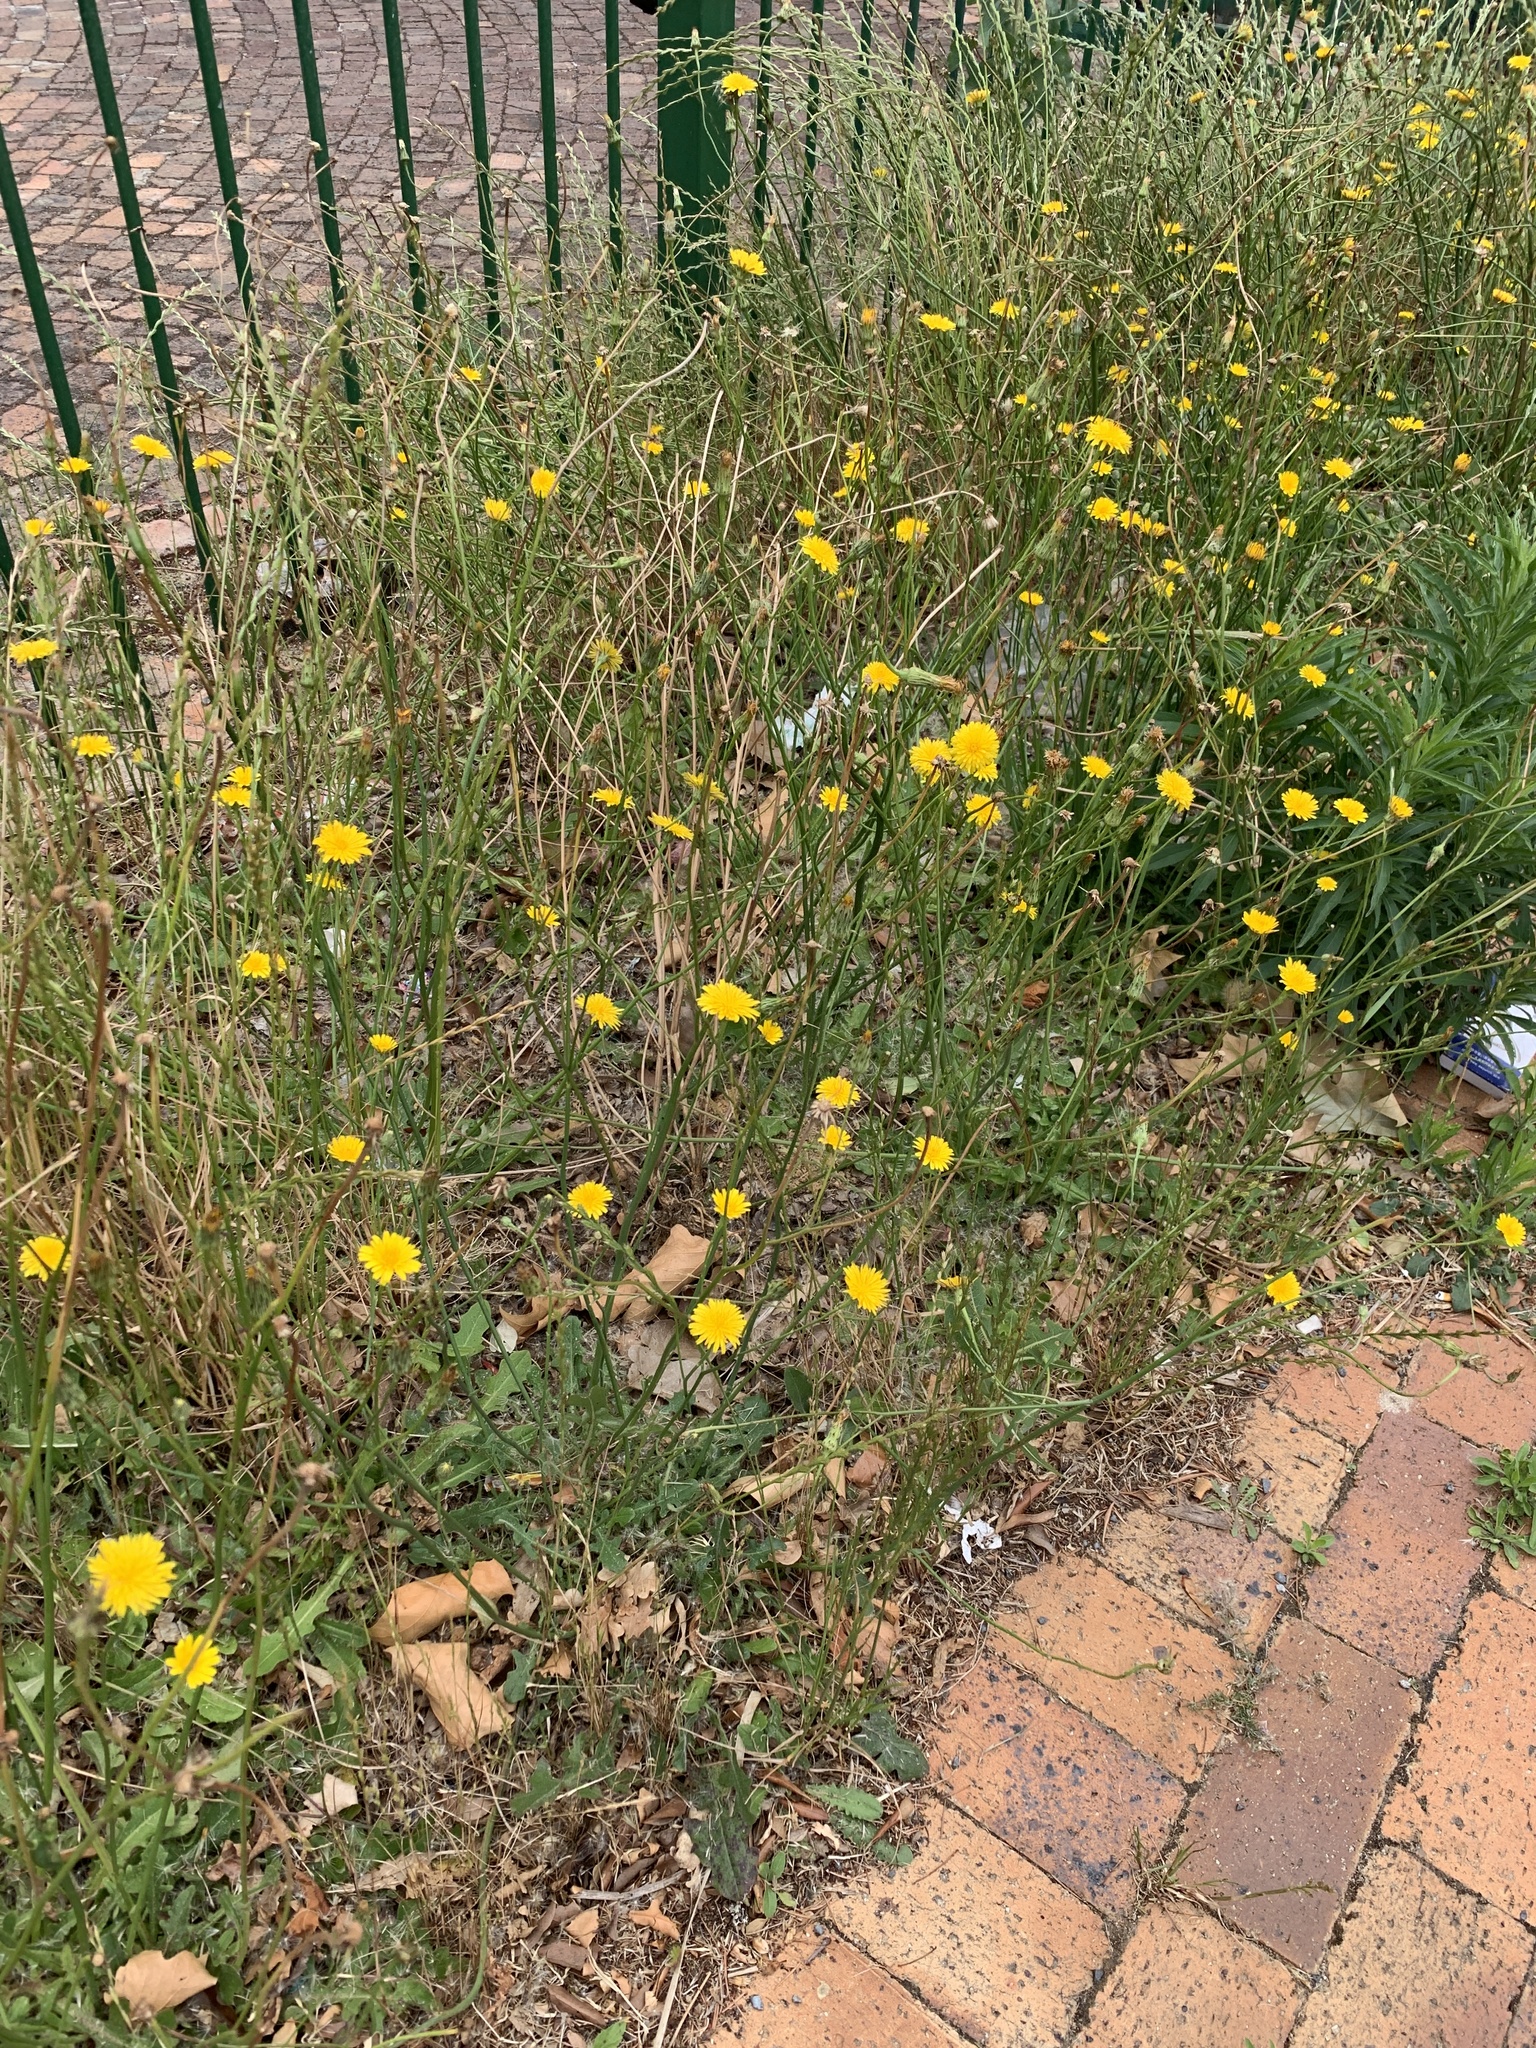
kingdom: Plantae
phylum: Tracheophyta
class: Magnoliopsida
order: Asterales
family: Asteraceae
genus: Hypochaeris
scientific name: Hypochaeris radicata
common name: Flatweed
